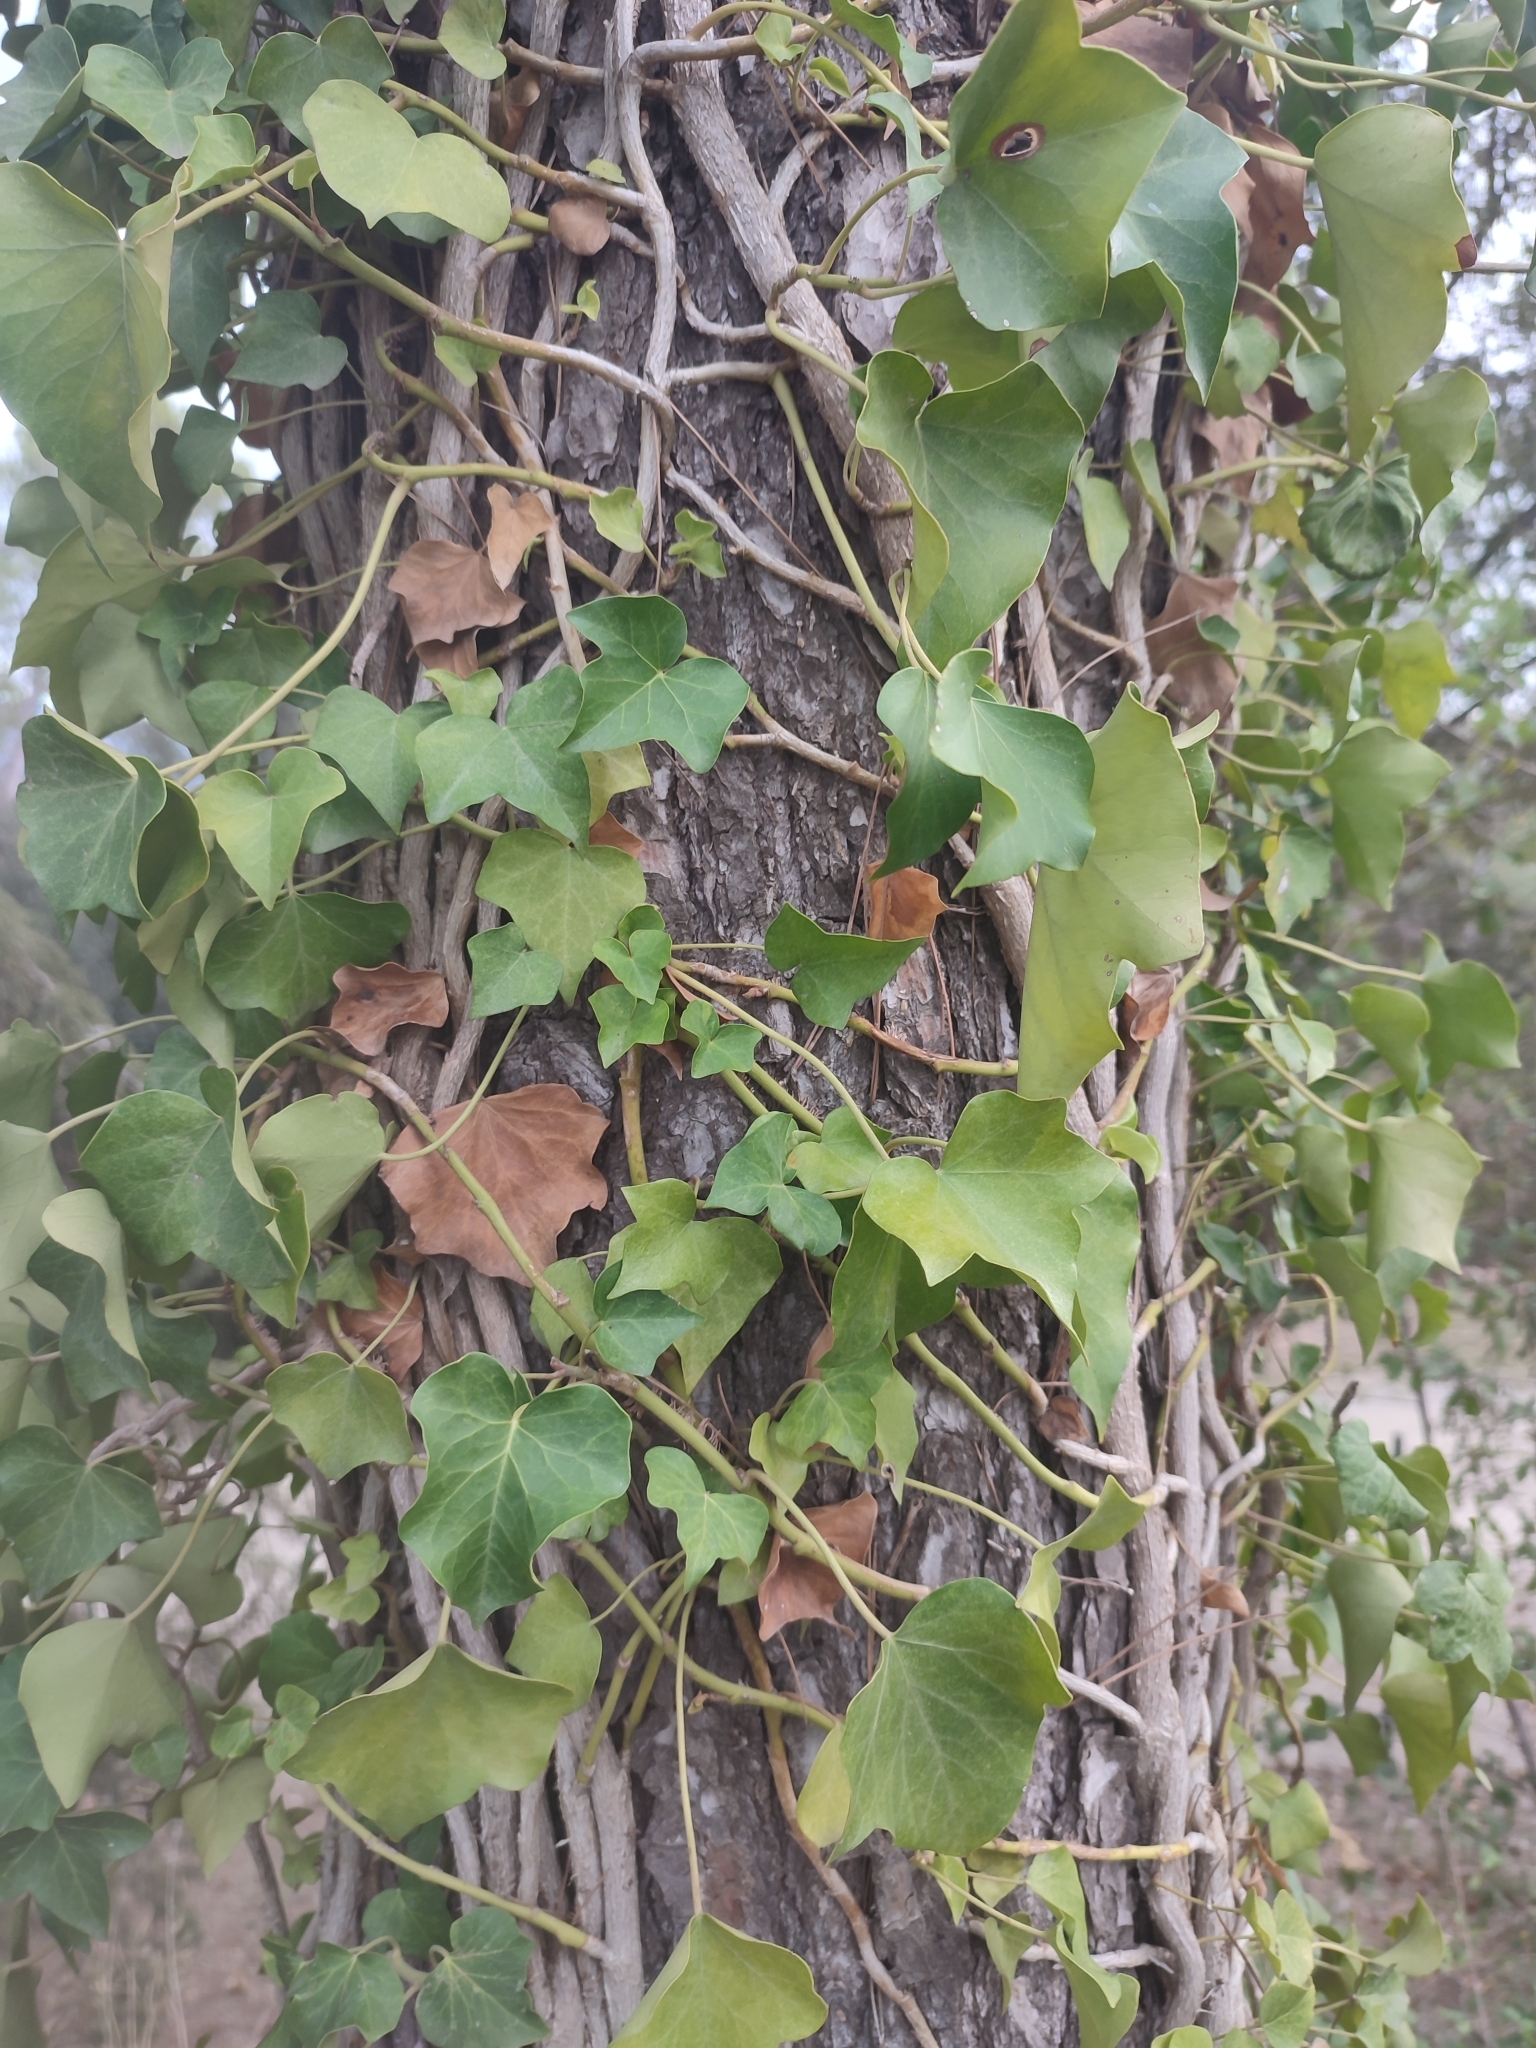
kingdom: Plantae
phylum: Tracheophyta
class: Magnoliopsida
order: Apiales
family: Araliaceae
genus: Hedera
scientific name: Hedera helix
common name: Ivy
